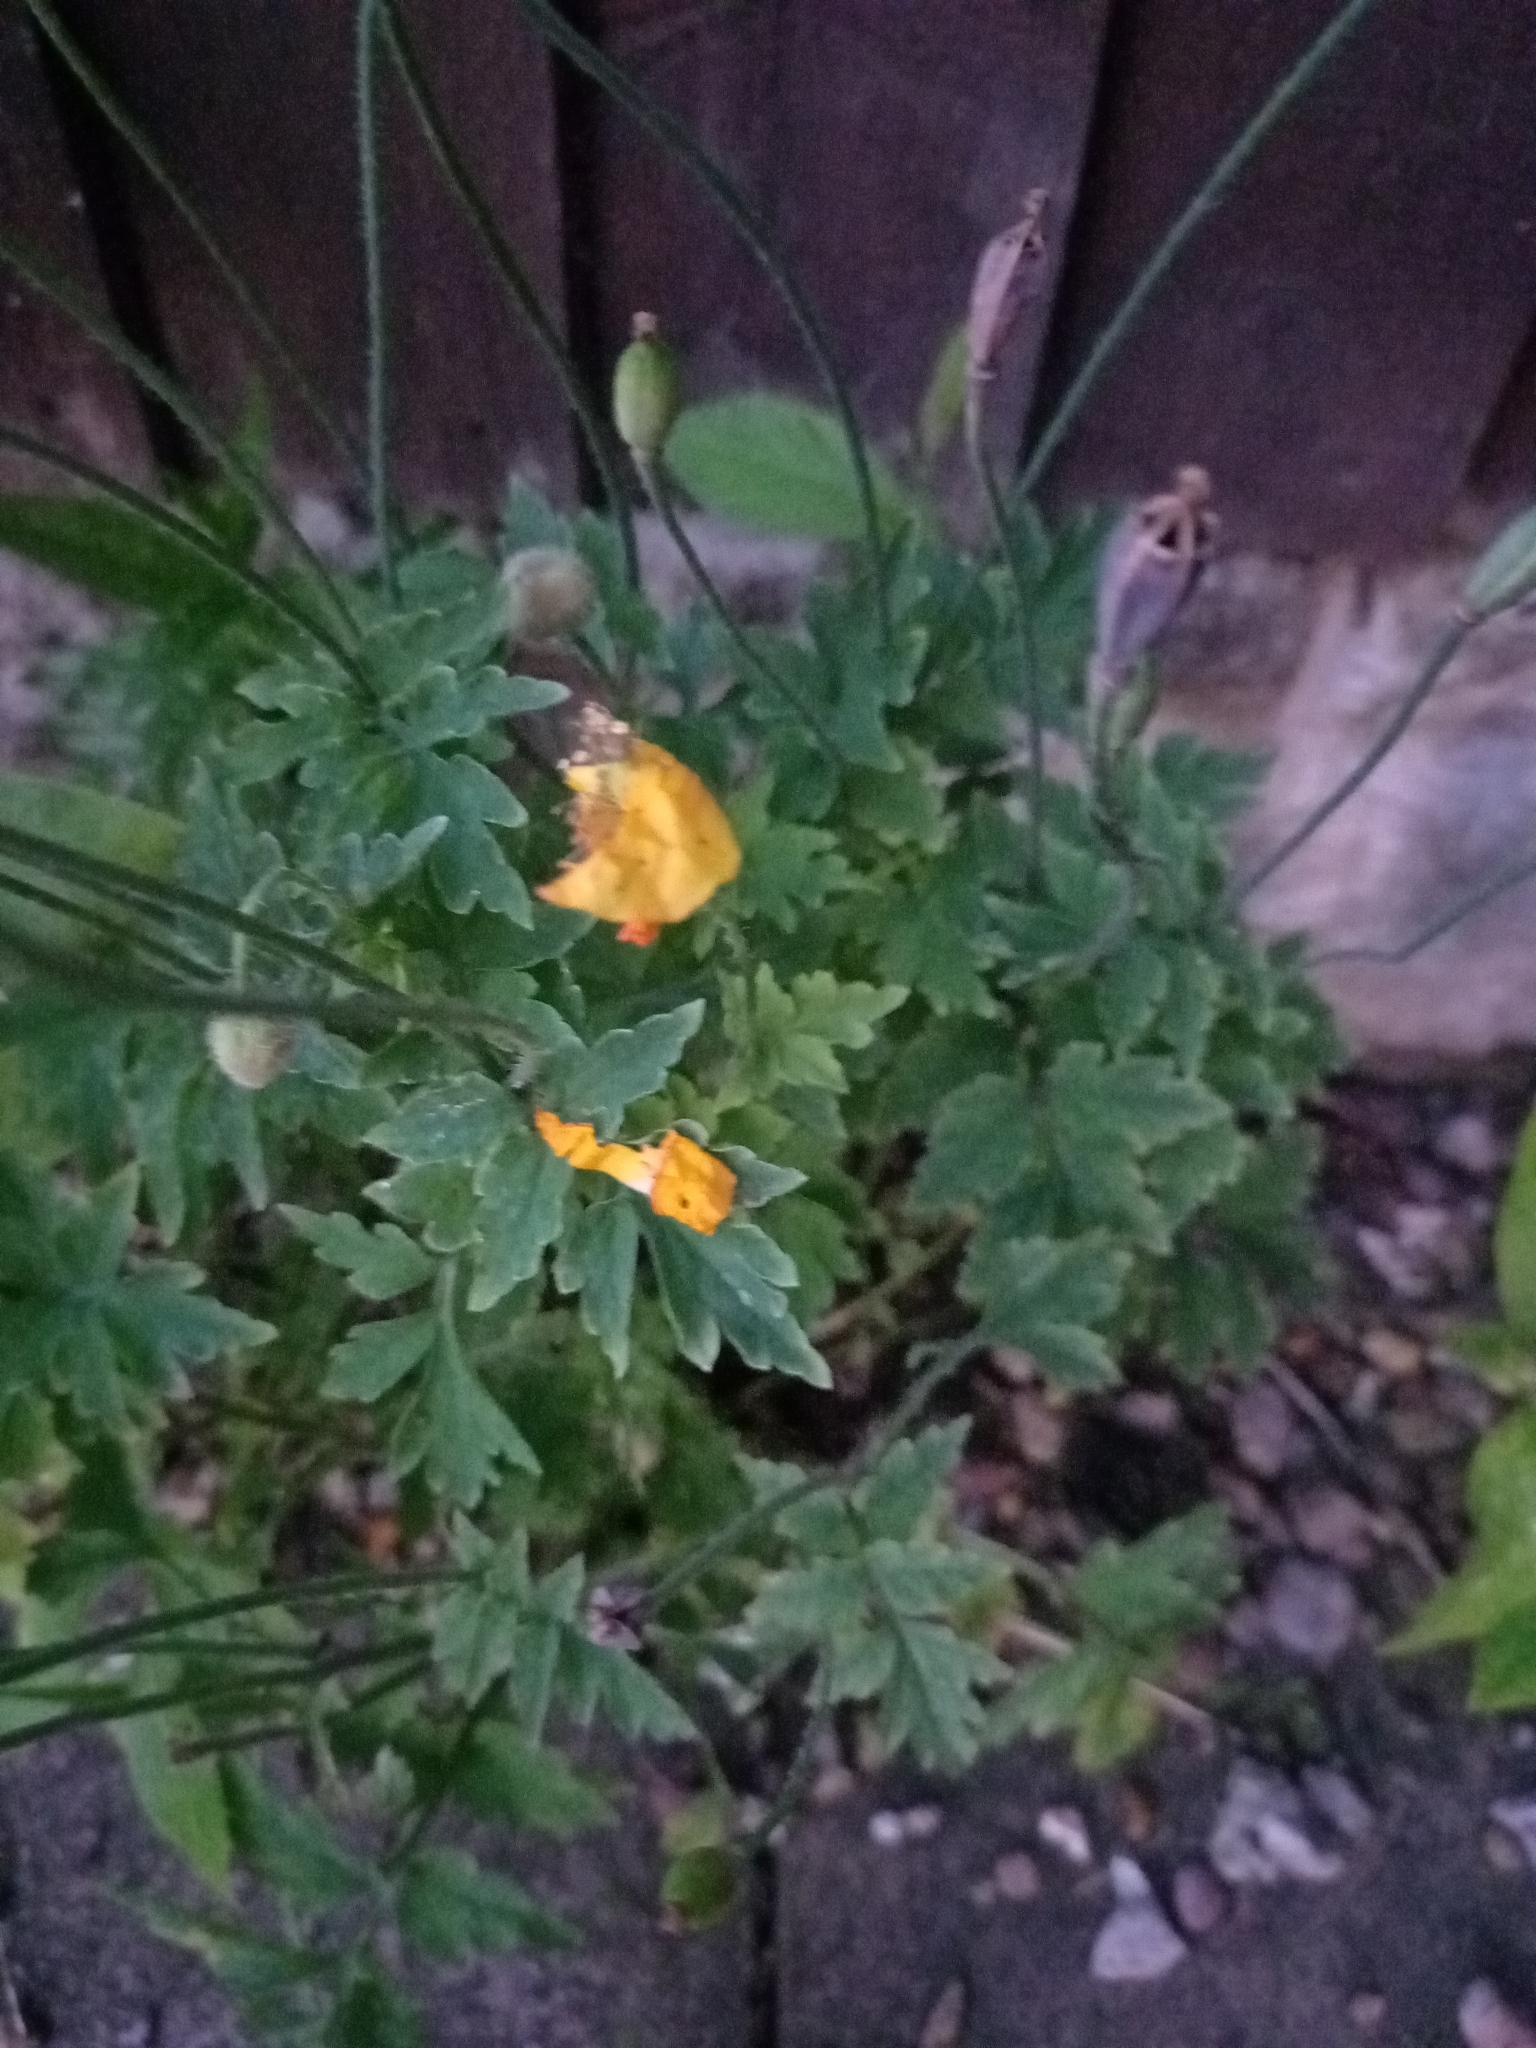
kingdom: Plantae
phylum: Tracheophyta
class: Magnoliopsida
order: Ranunculales
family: Papaveraceae
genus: Papaver
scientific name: Papaver cambricum
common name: Poppy
